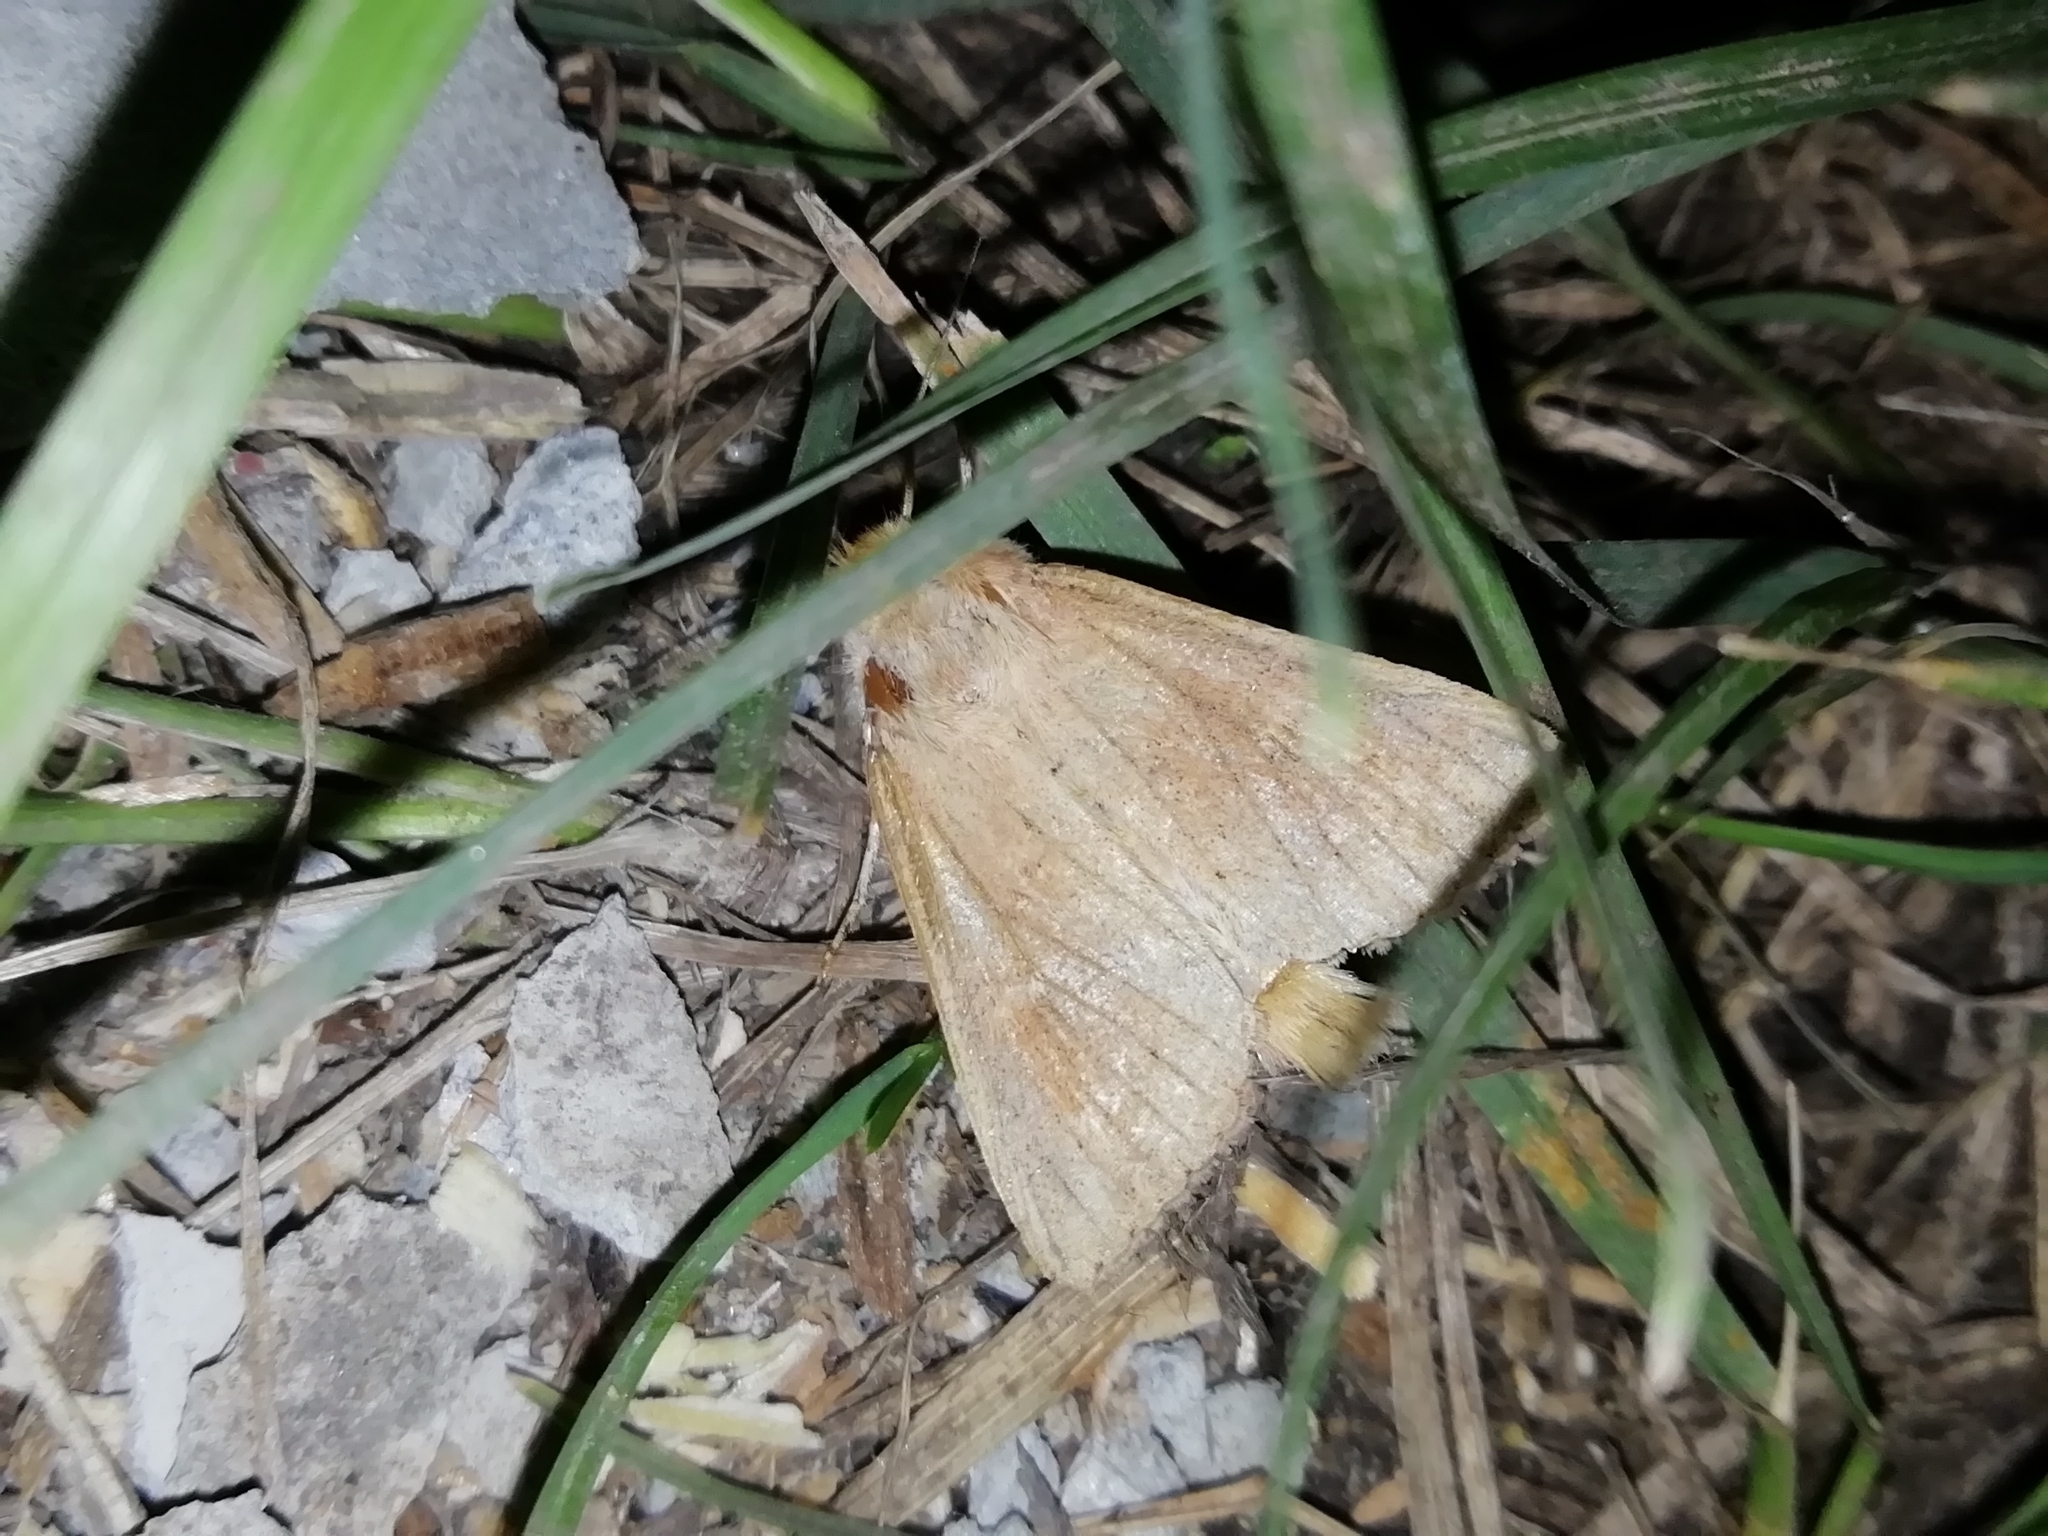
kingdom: Animalia
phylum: Arthropoda
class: Insecta
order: Lepidoptera
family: Noctuidae
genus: Photedes
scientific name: Photedes fluxa
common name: Mere wainscot
